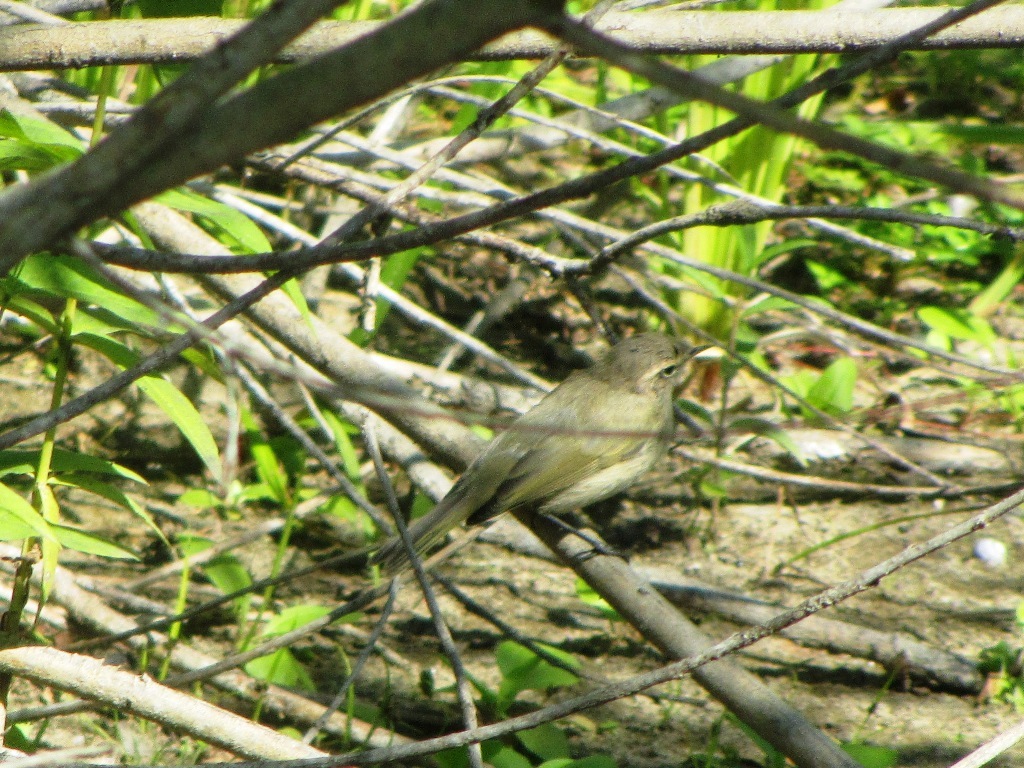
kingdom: Animalia
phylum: Chordata
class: Aves
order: Passeriformes
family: Phylloscopidae
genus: Phylloscopus
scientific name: Phylloscopus collybita
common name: Common chiffchaff
